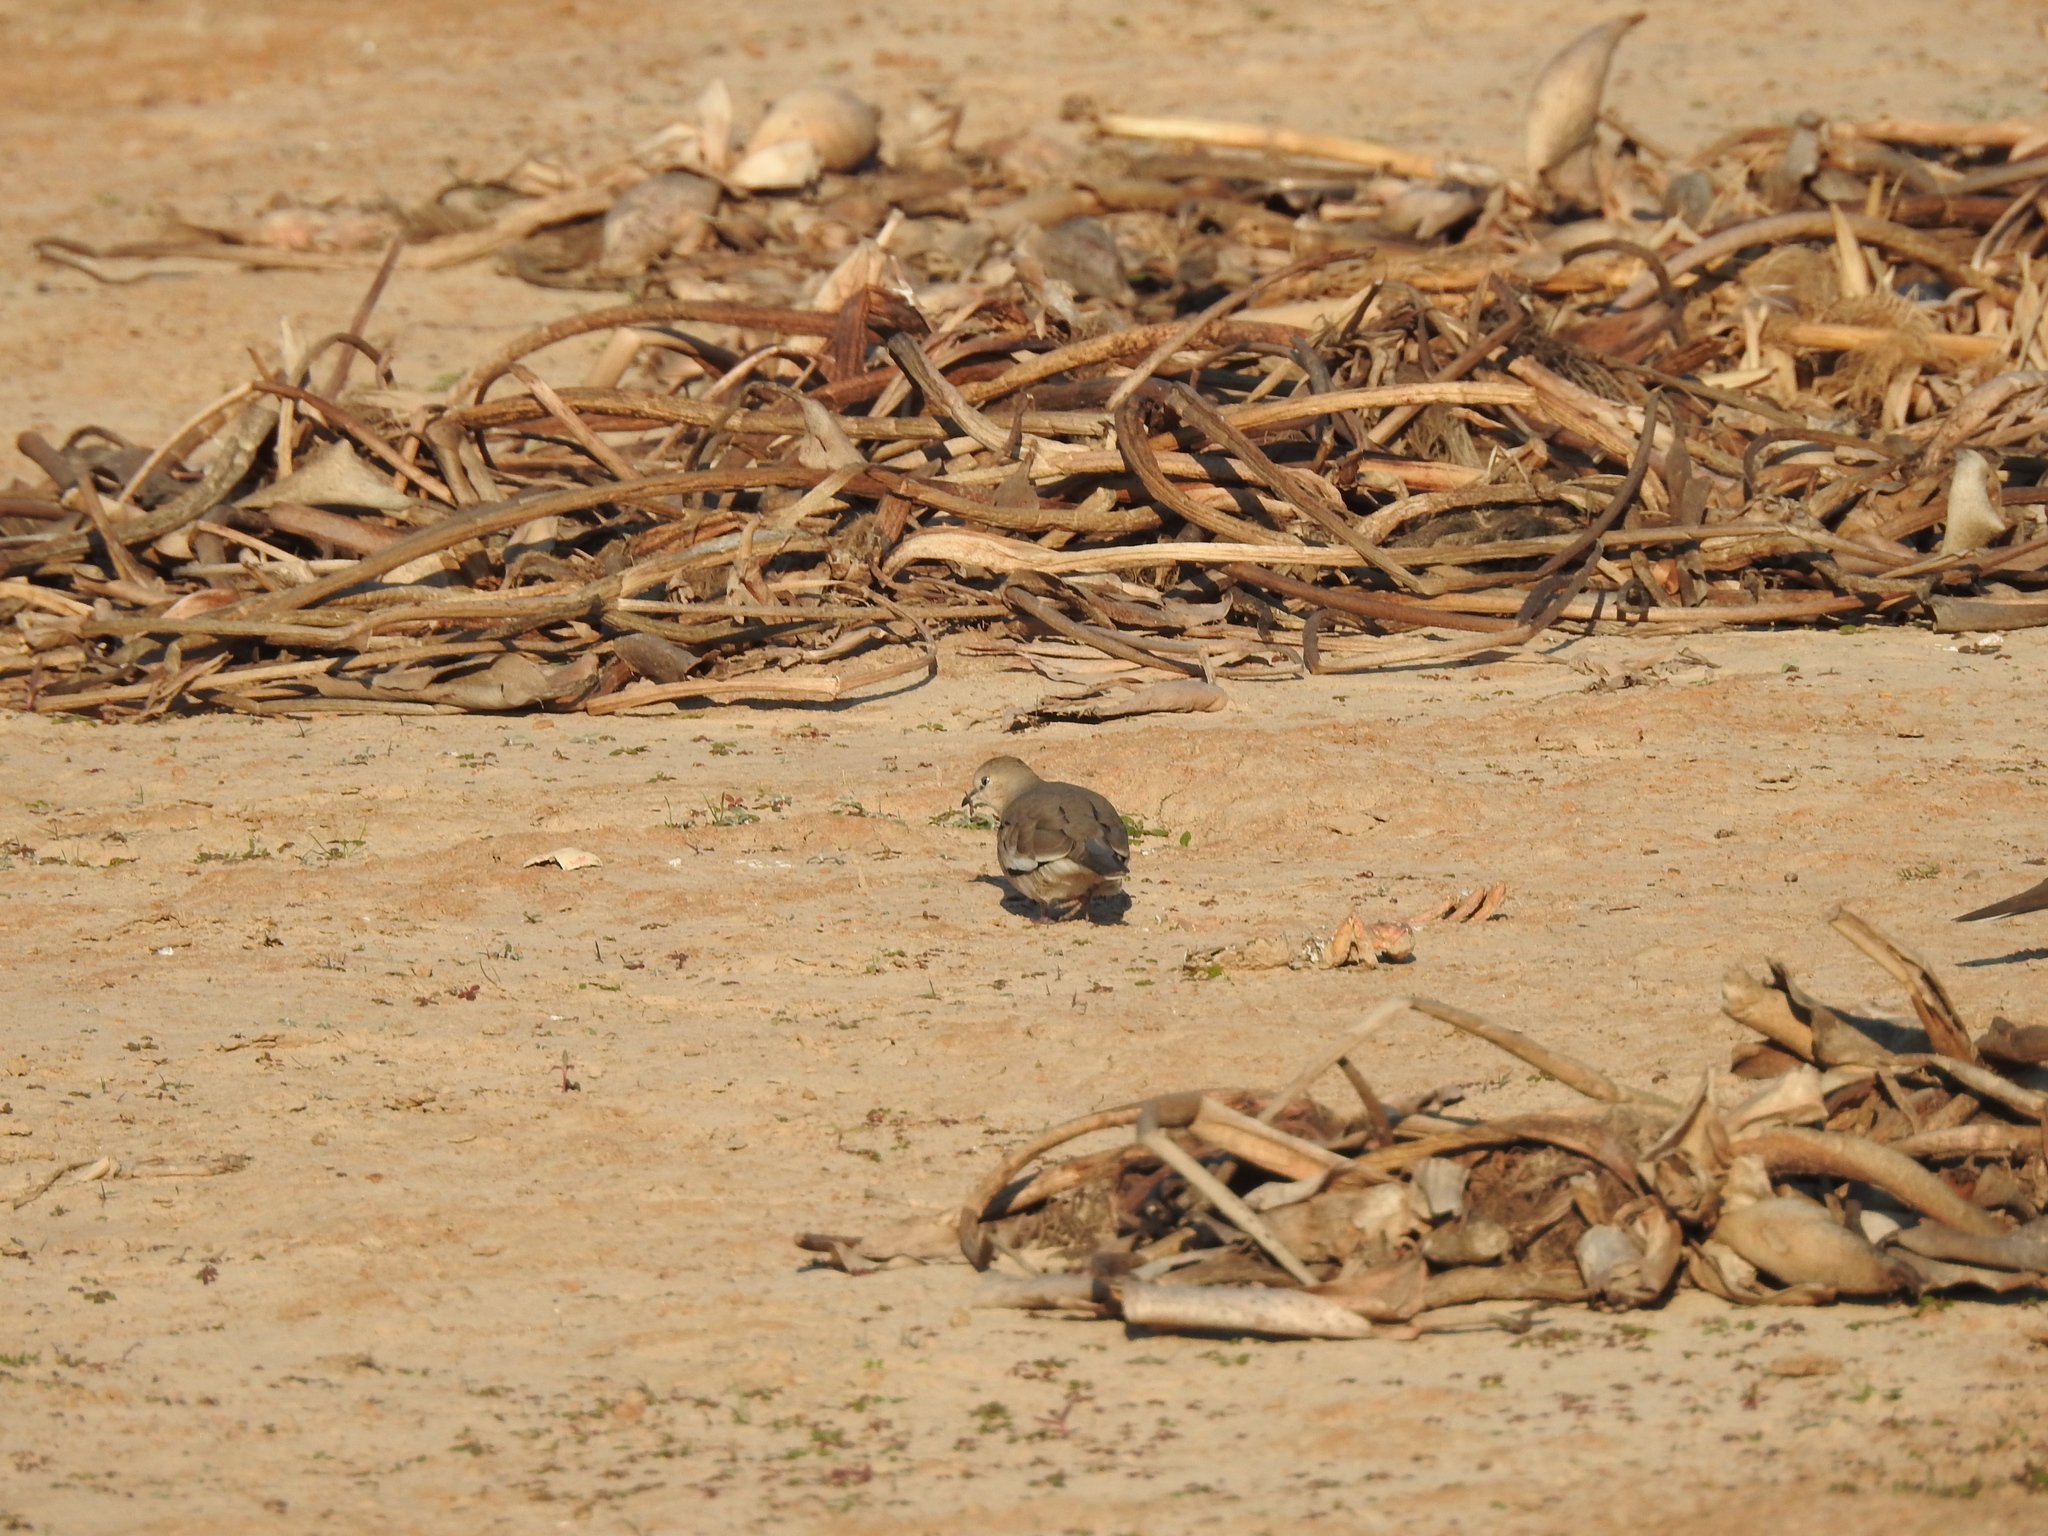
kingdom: Animalia
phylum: Chordata
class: Aves
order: Columbiformes
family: Columbidae
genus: Columbina
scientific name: Columbina picui
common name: Picui ground dove
